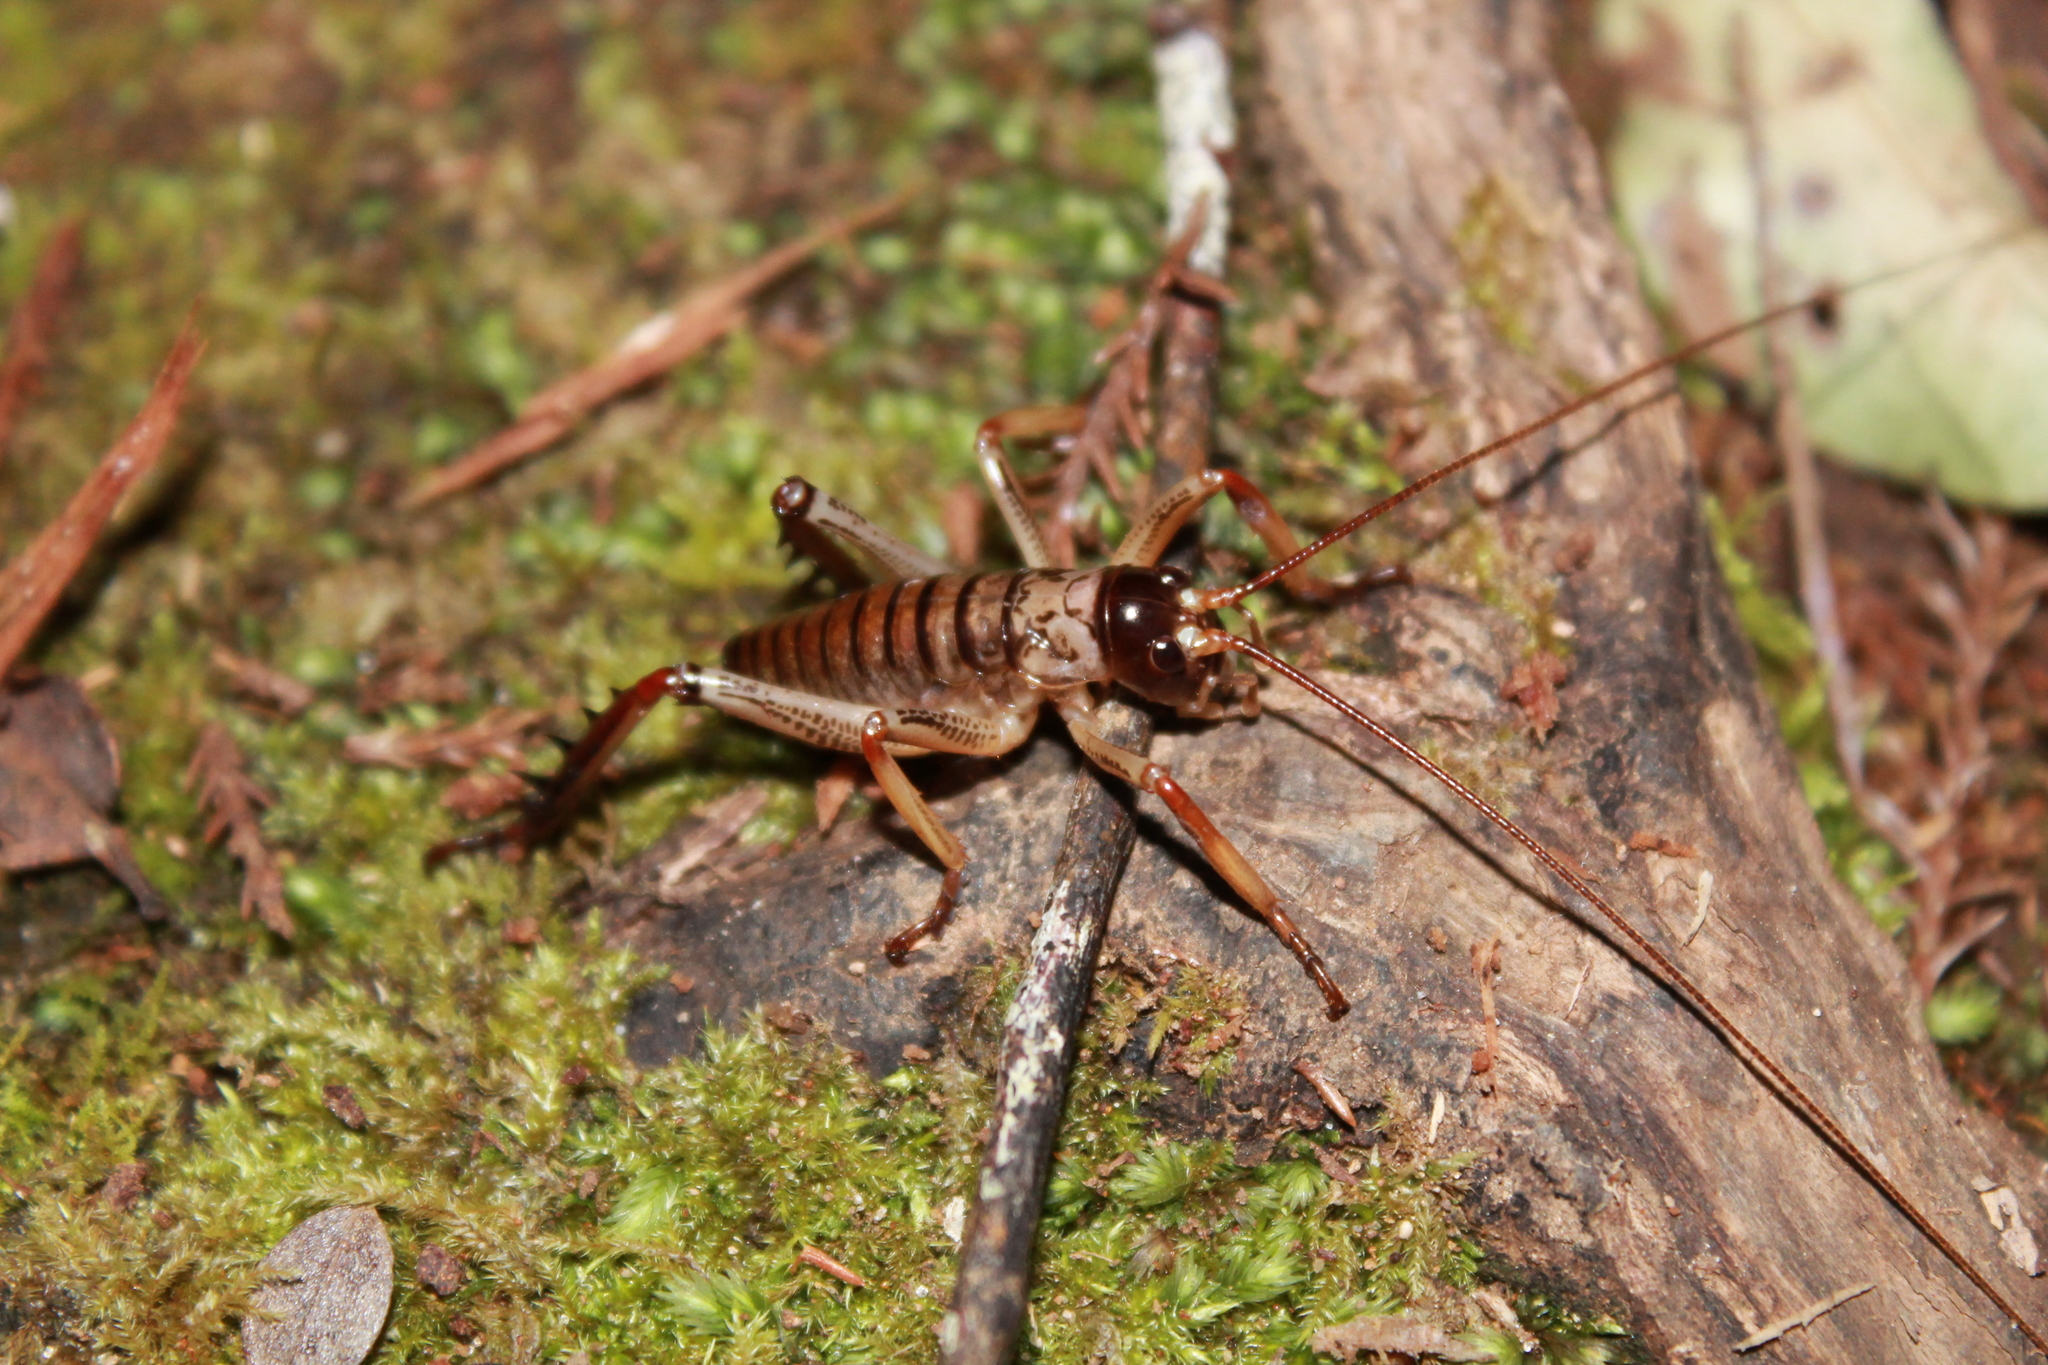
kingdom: Animalia
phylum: Arthropoda
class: Insecta
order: Orthoptera
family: Anostostomatidae
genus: Hemideina
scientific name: Hemideina thoracica
